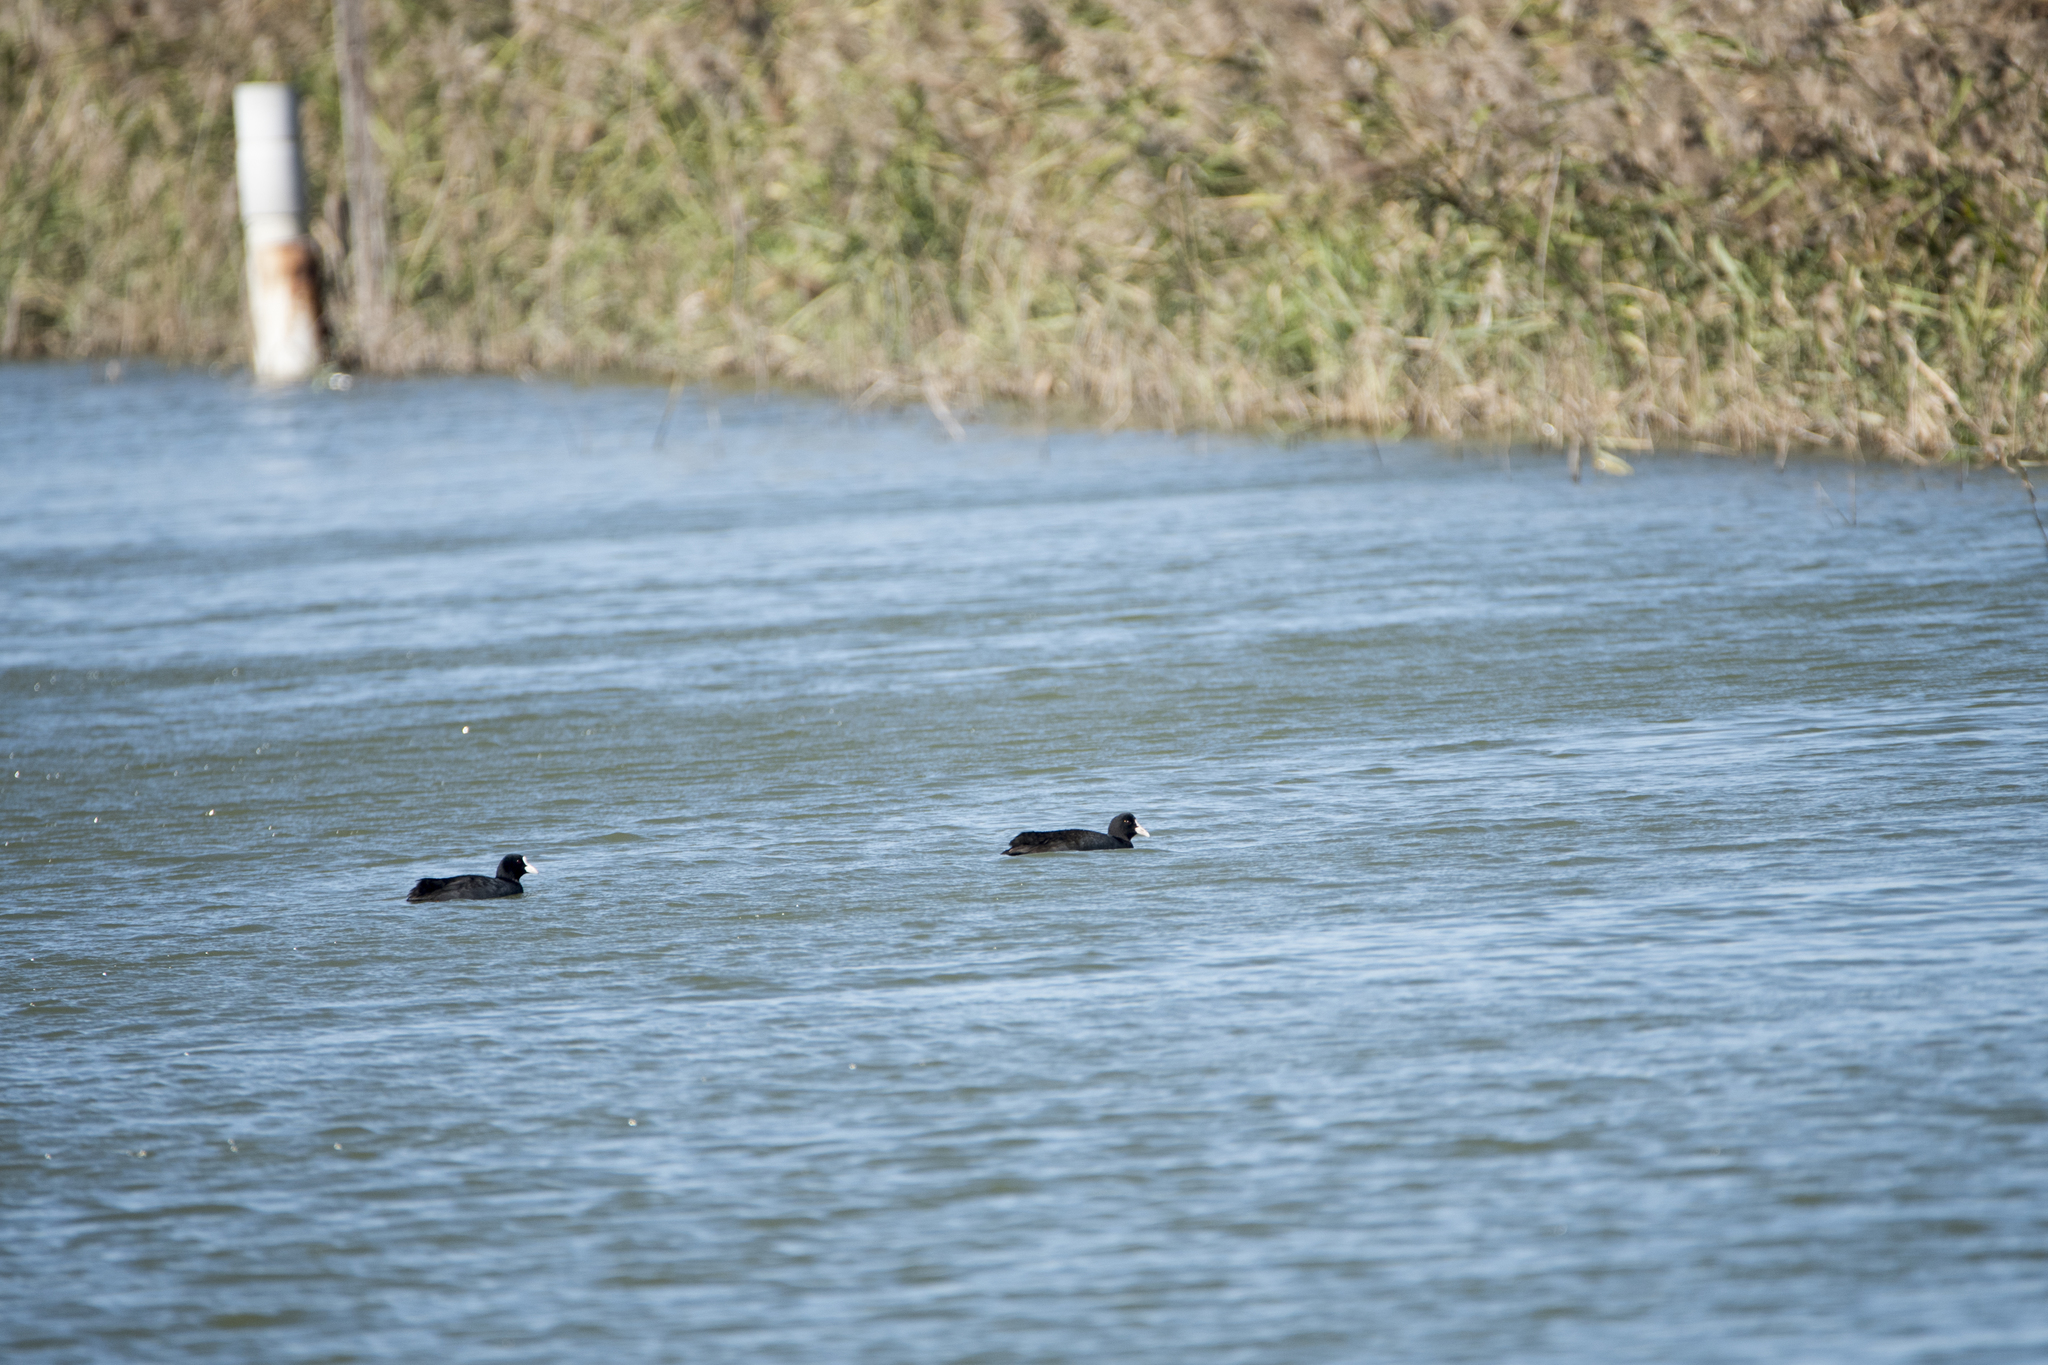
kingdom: Animalia
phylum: Chordata
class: Aves
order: Gruiformes
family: Rallidae
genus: Fulica
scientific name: Fulica atra
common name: Eurasian coot
